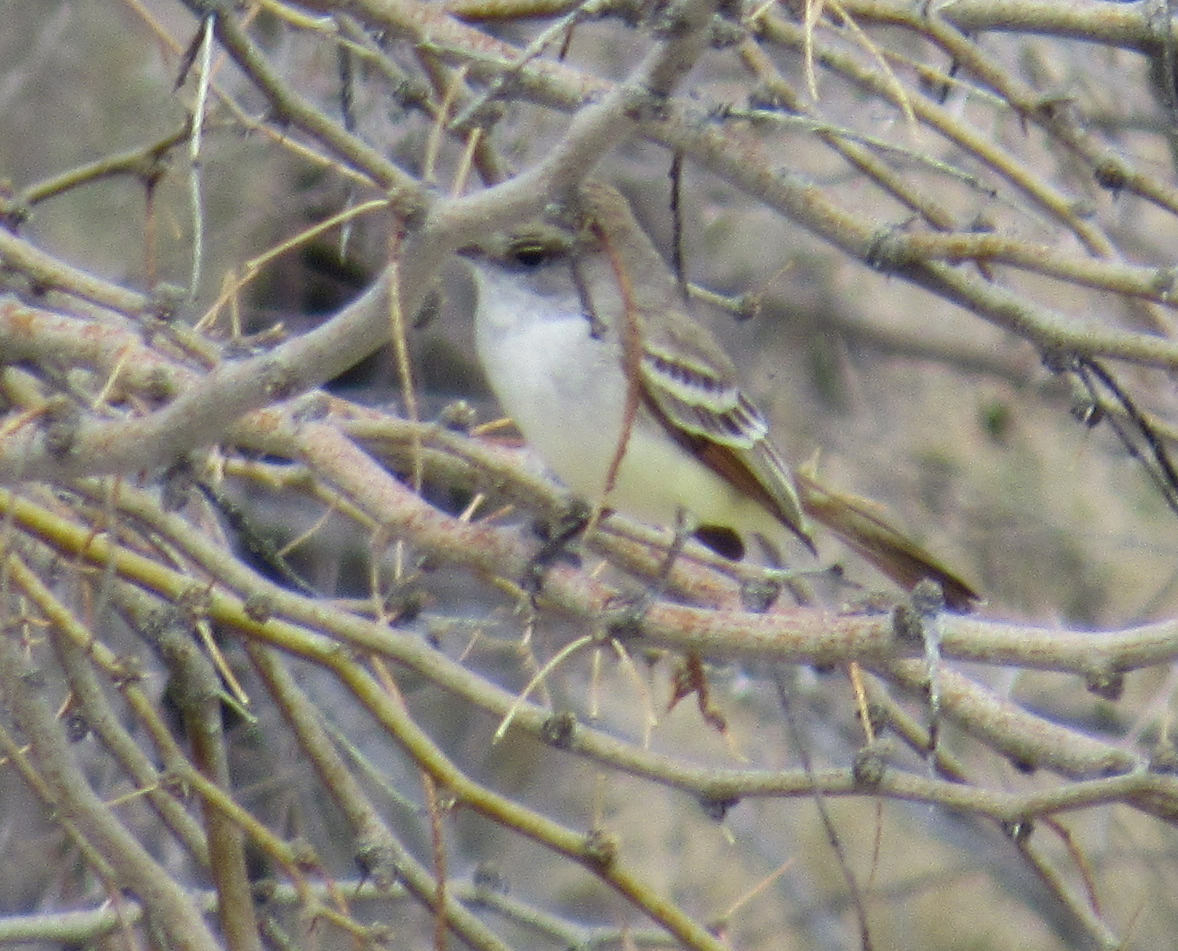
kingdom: Animalia
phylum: Chordata
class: Aves
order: Passeriformes
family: Tyrannidae
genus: Myiarchus
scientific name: Myiarchus cinerascens
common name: Ash-throated flycatcher
